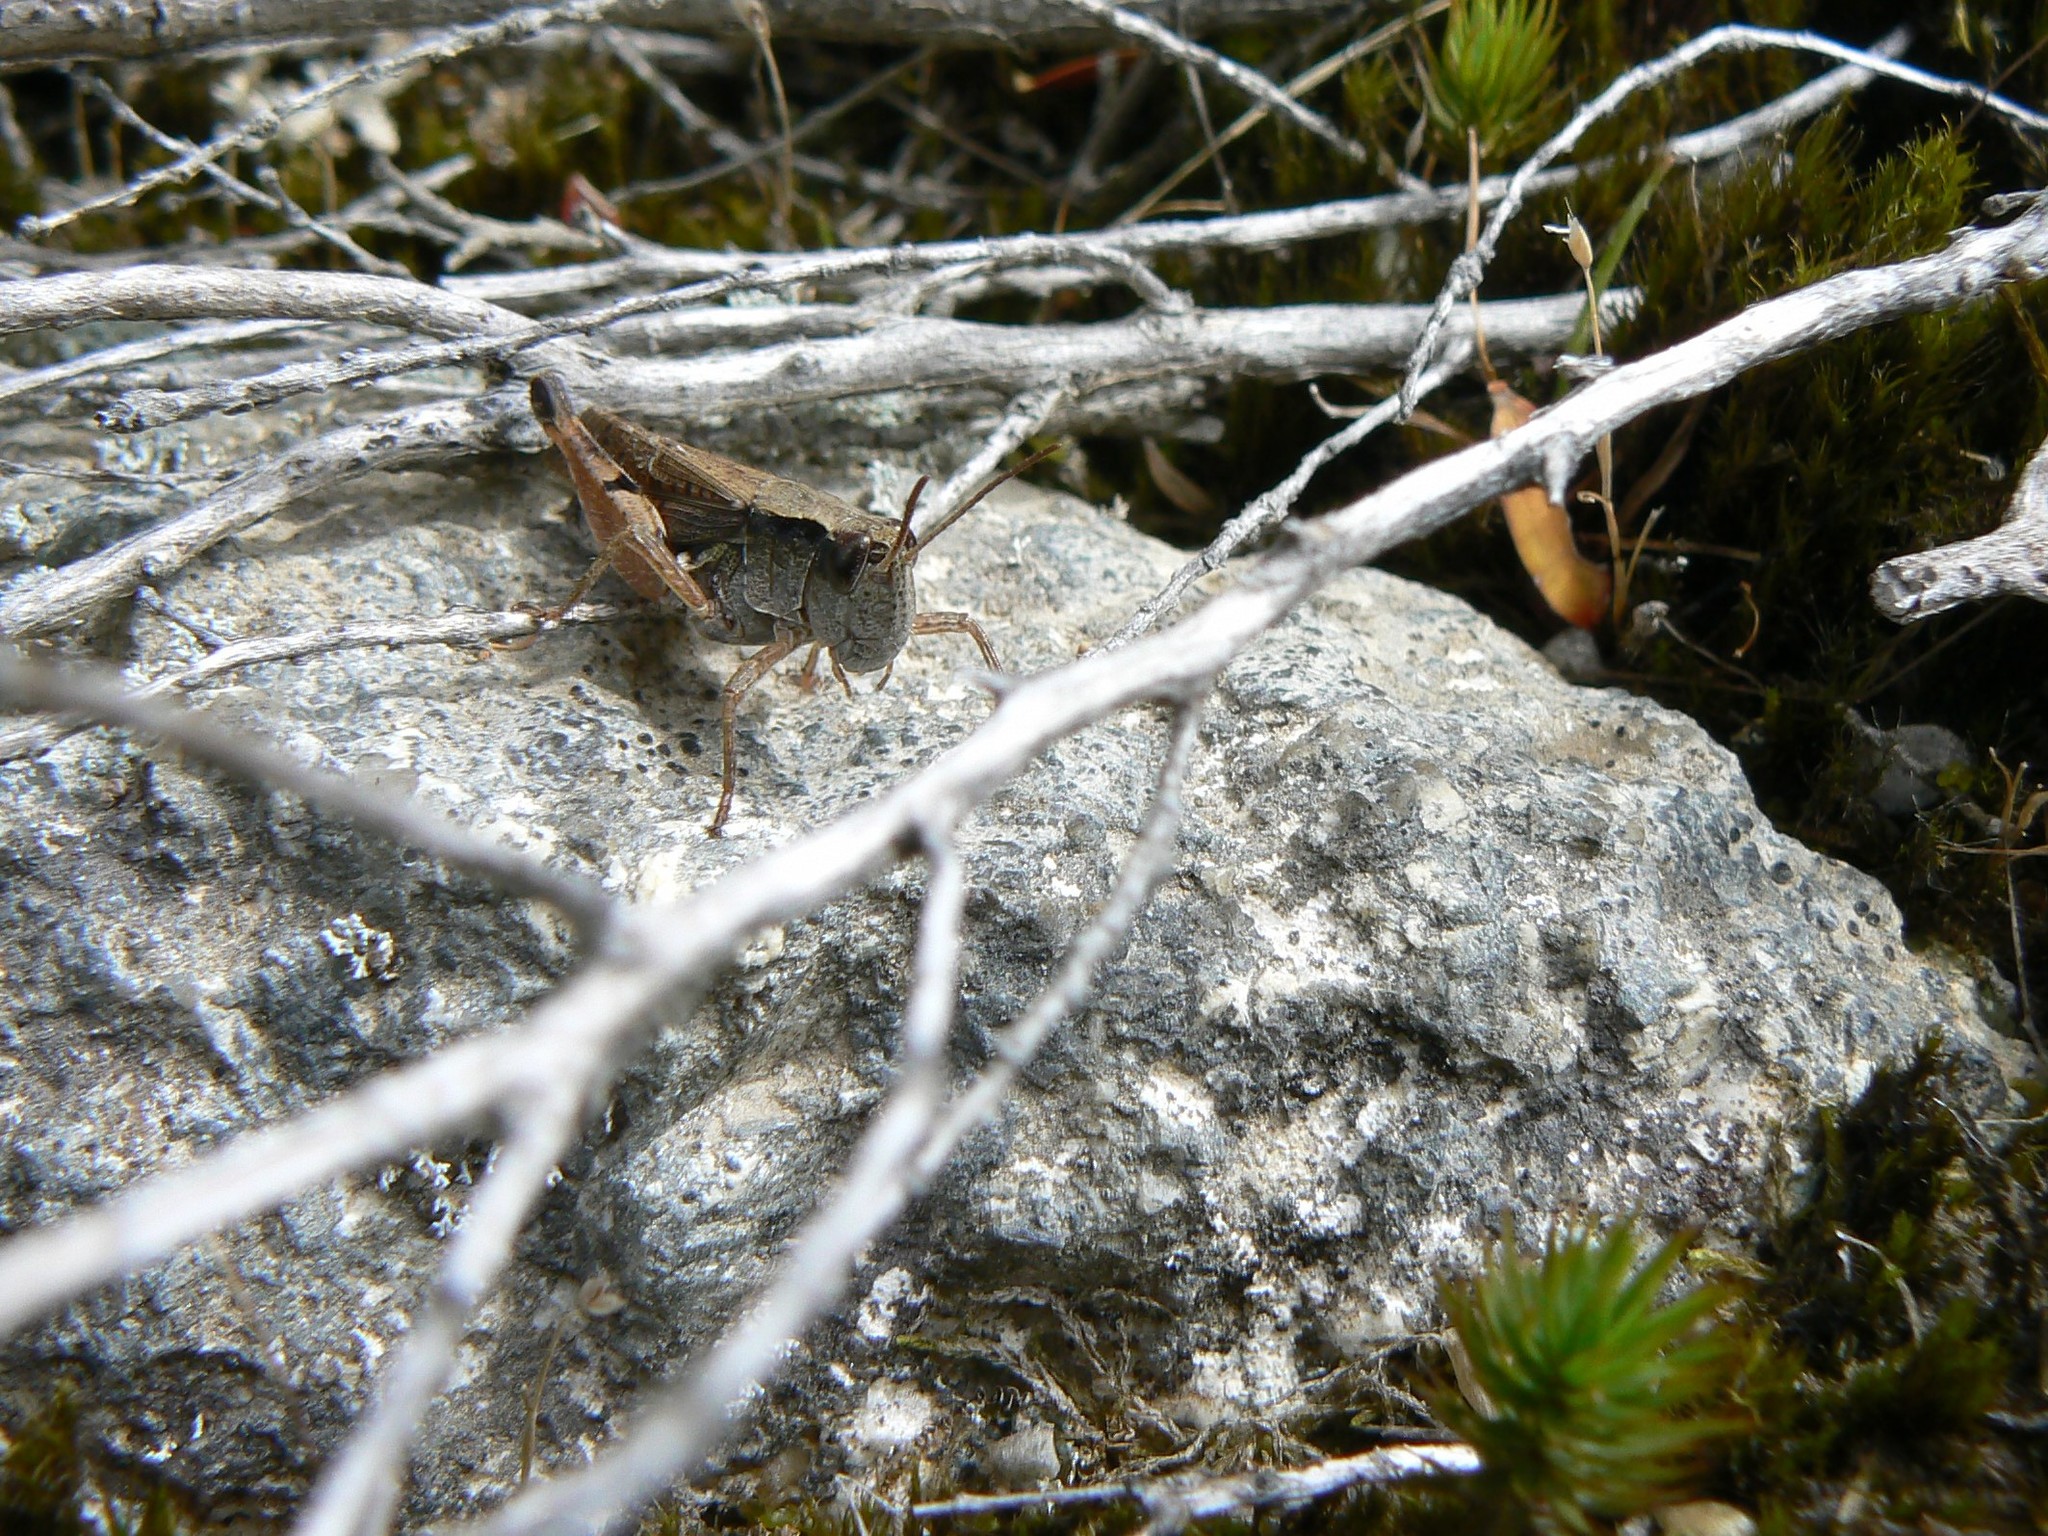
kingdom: Animalia
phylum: Arthropoda
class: Insecta
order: Orthoptera
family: Acrididae
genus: Phaulacridium
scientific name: Phaulacridium vittatum
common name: Wingless grasshopper
